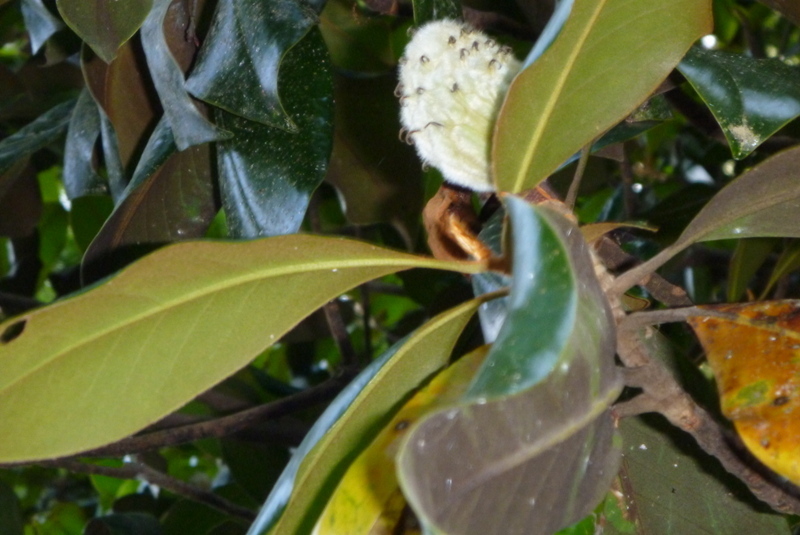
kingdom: Plantae
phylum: Tracheophyta
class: Magnoliopsida
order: Magnoliales
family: Magnoliaceae
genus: Magnolia
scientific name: Magnolia grandiflora
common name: Southern magnolia
